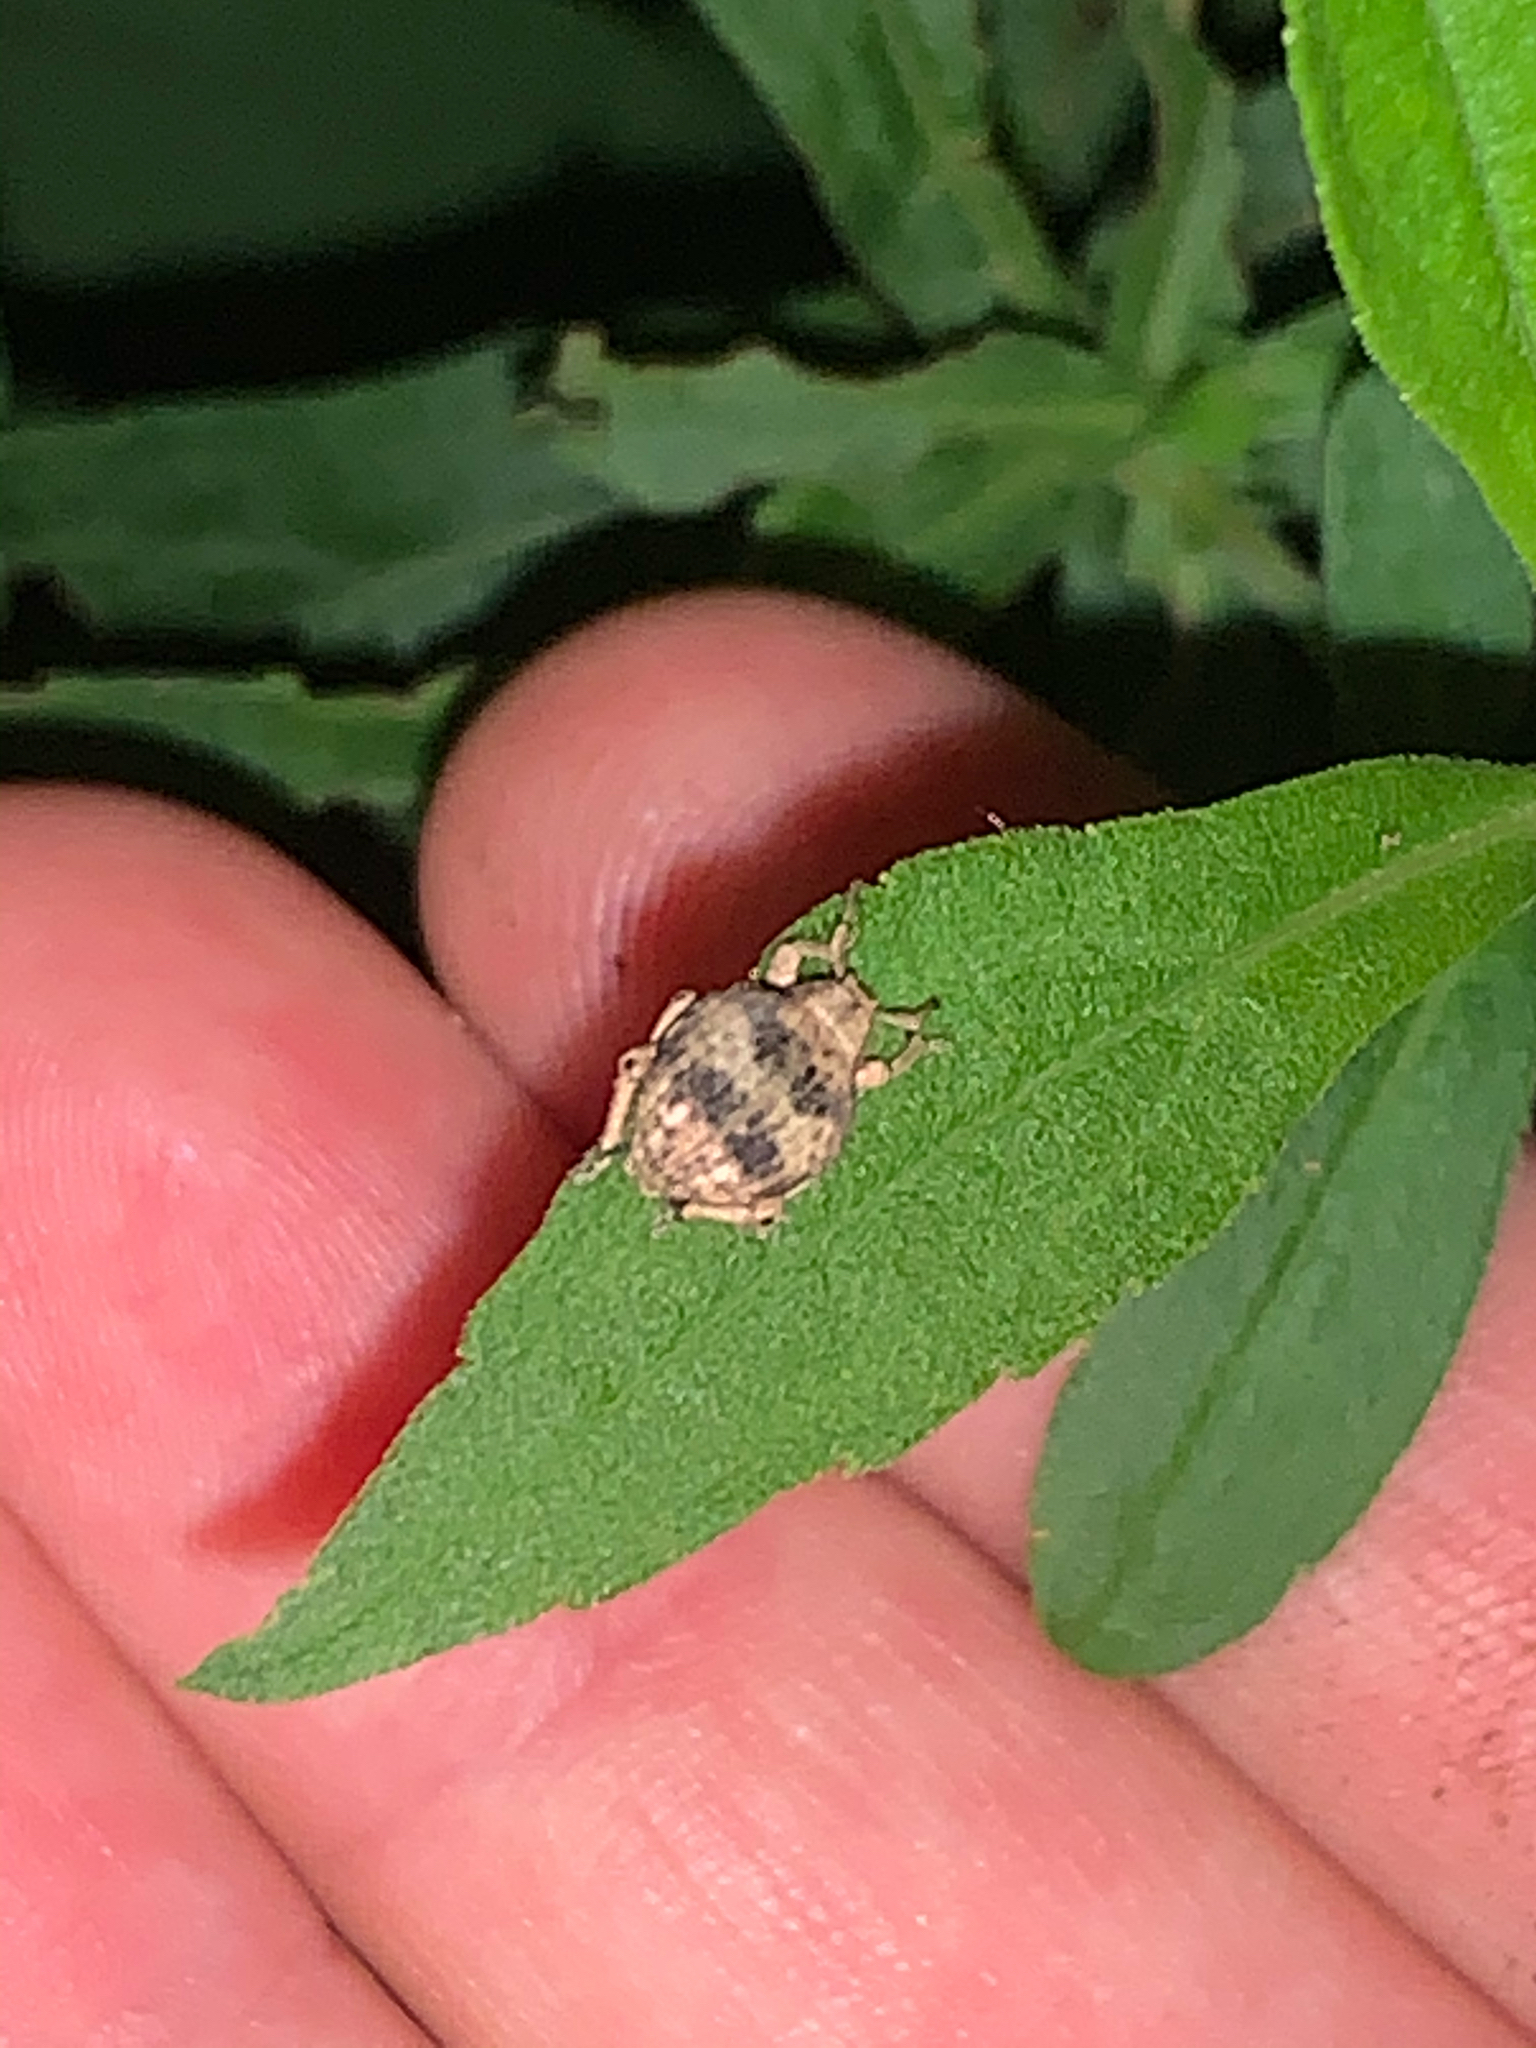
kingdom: Animalia
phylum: Arthropoda
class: Insecta
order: Coleoptera
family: Curculionidae
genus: Pseudocneorhinus
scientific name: Pseudocneorhinus bifasciatus
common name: Two-banded japanese weevil
